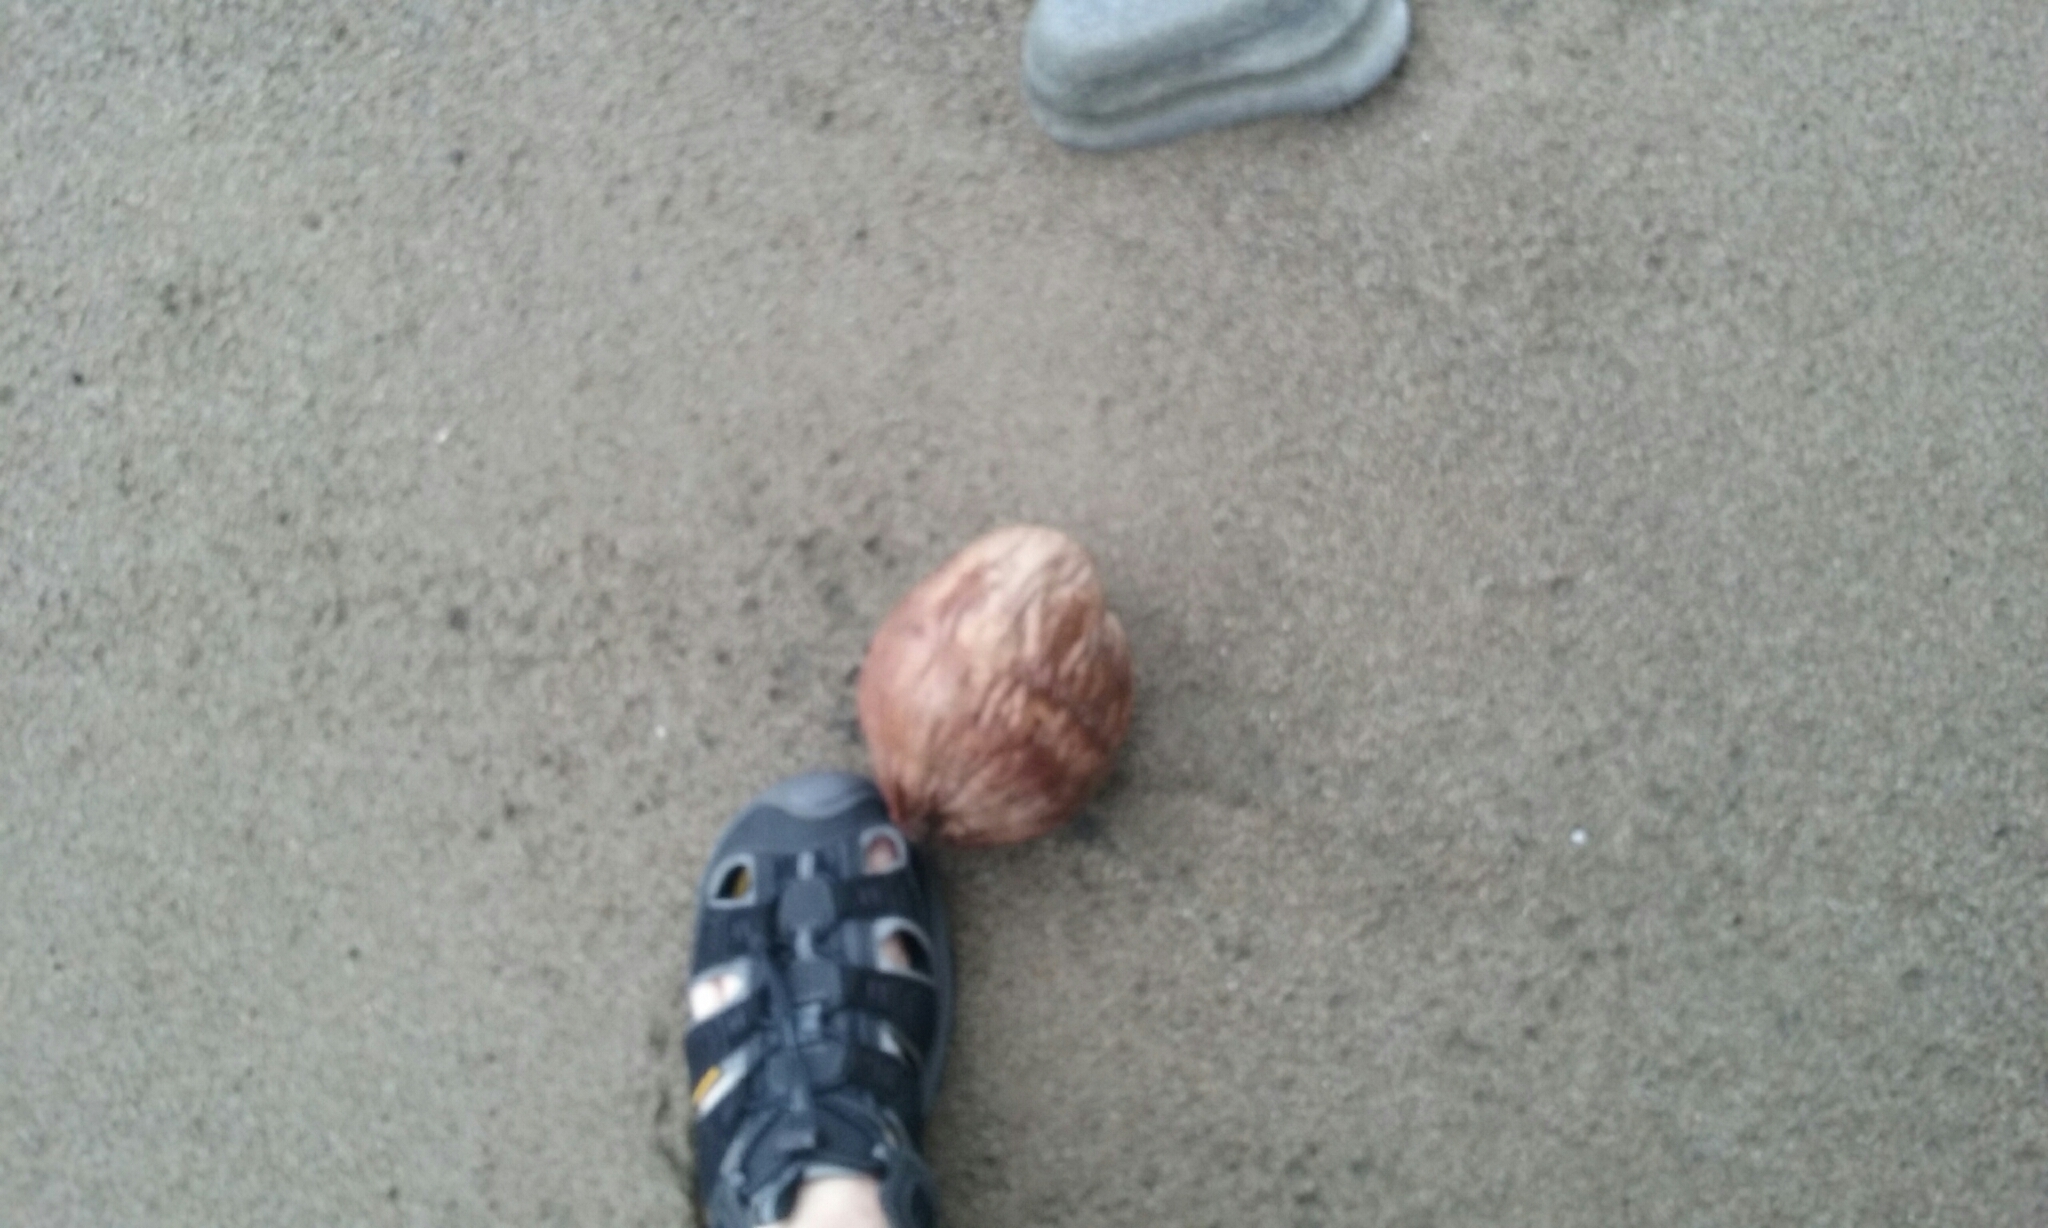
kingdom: Plantae
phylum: Tracheophyta
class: Liliopsida
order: Arecales
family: Arecaceae
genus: Cocos
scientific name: Cocos nucifera
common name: Coconut palm
